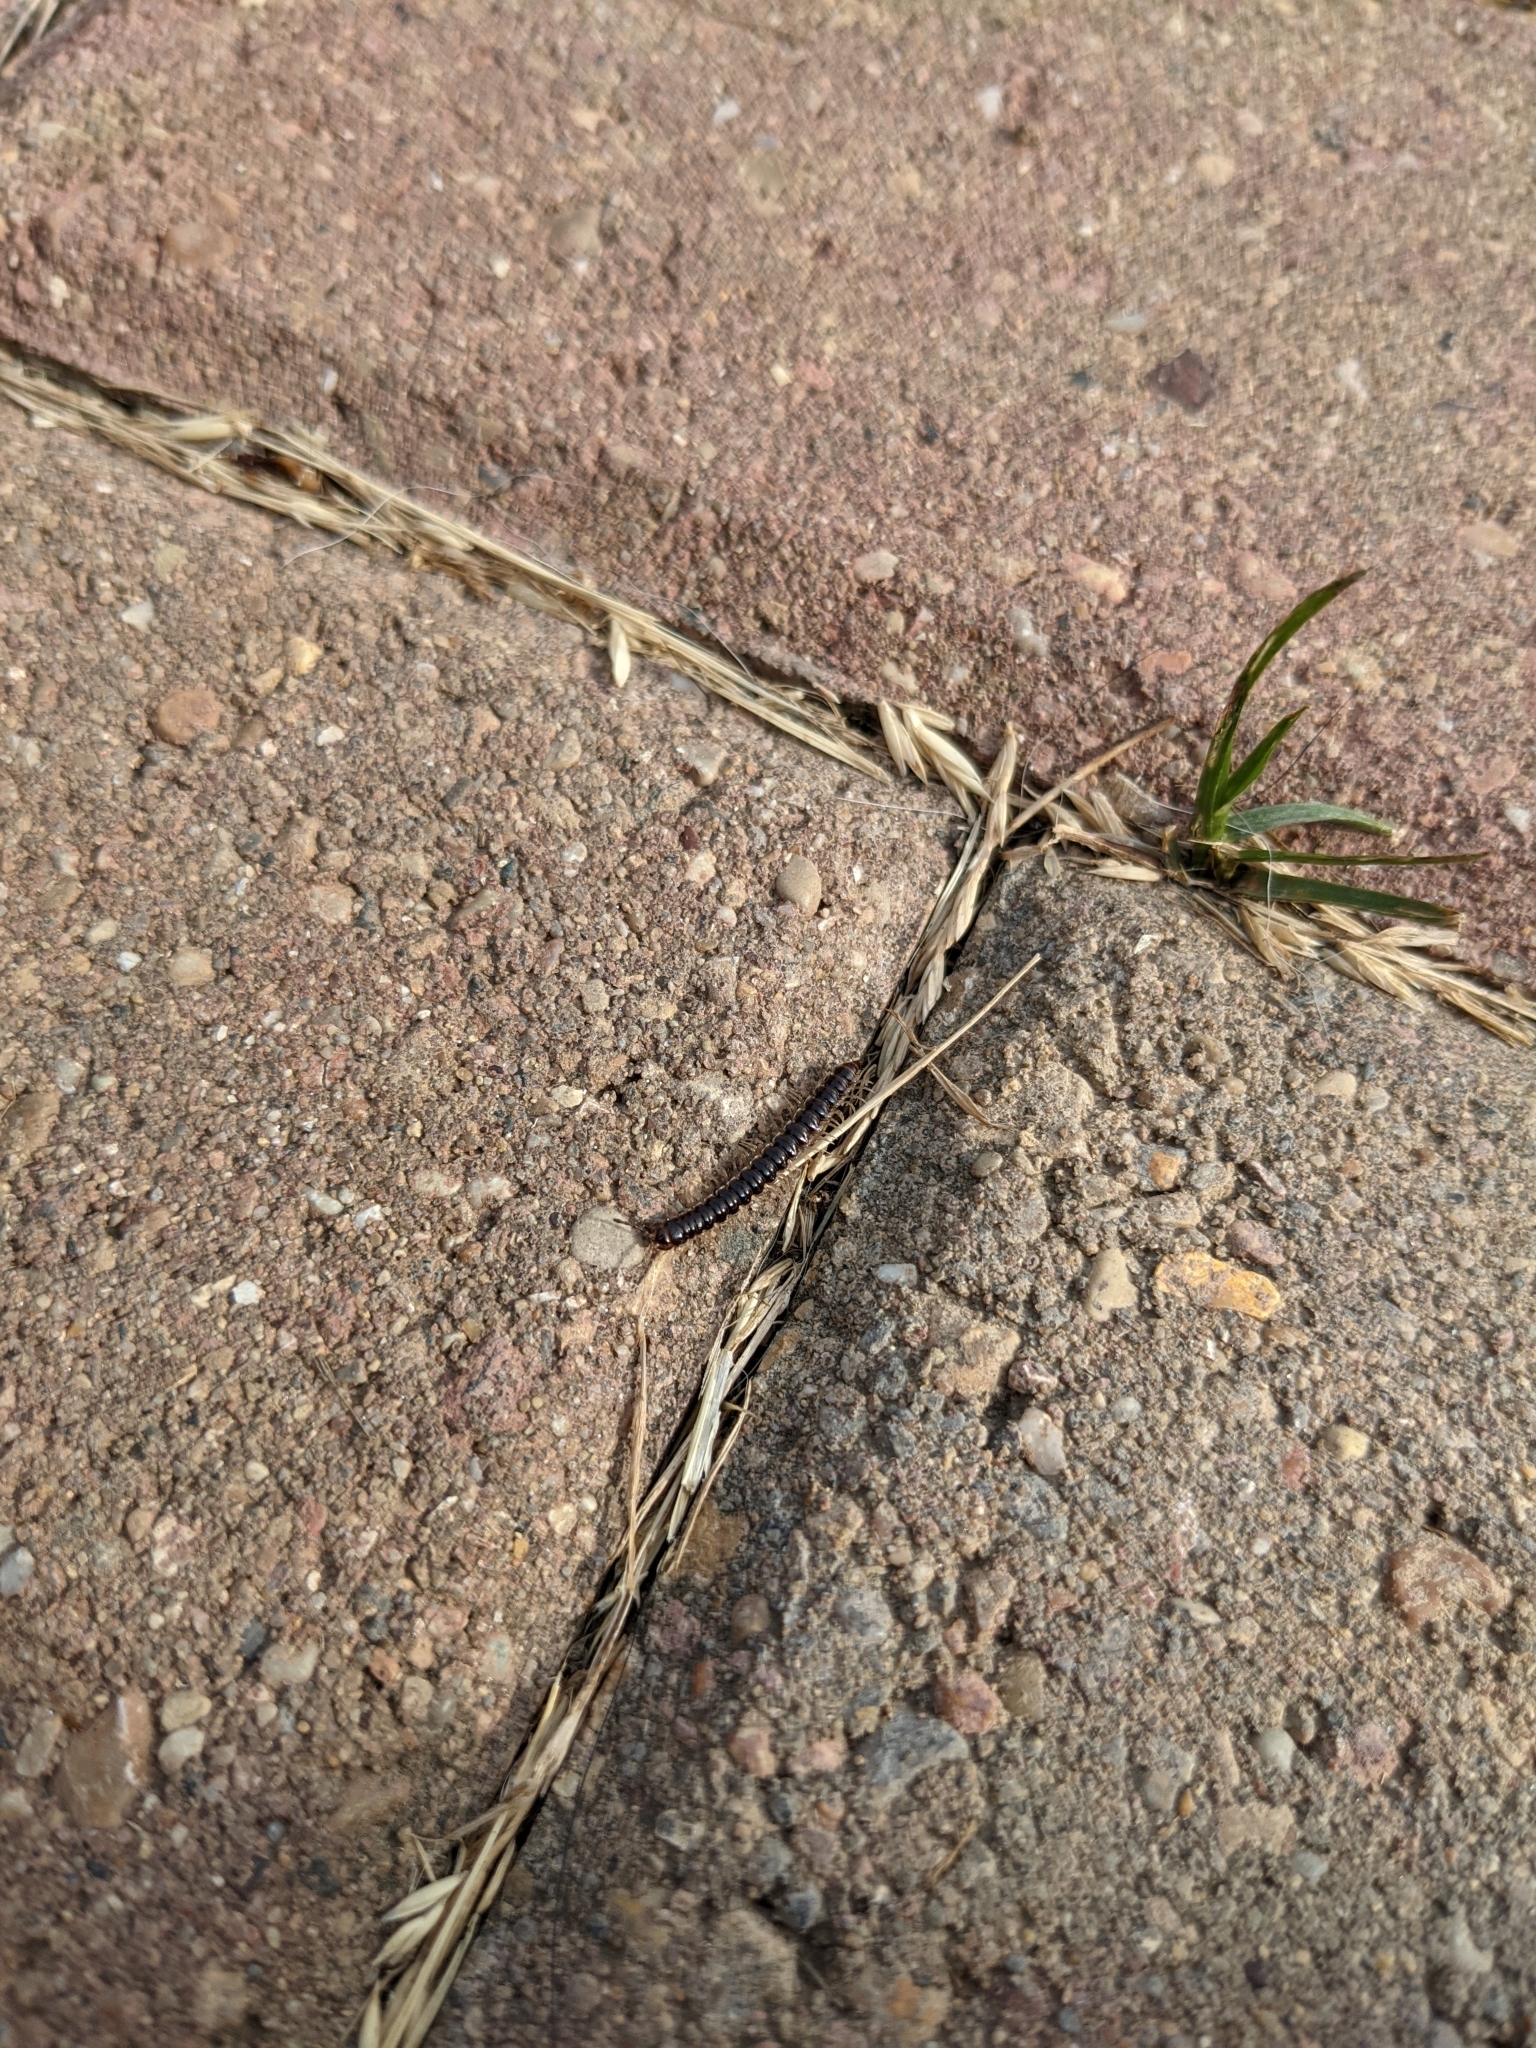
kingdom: Animalia
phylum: Arthropoda
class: Diplopoda
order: Polydesmida
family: Paradoxosomatidae
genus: Oxidus
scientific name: Oxidus gracilis
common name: Greenhouse millipede
